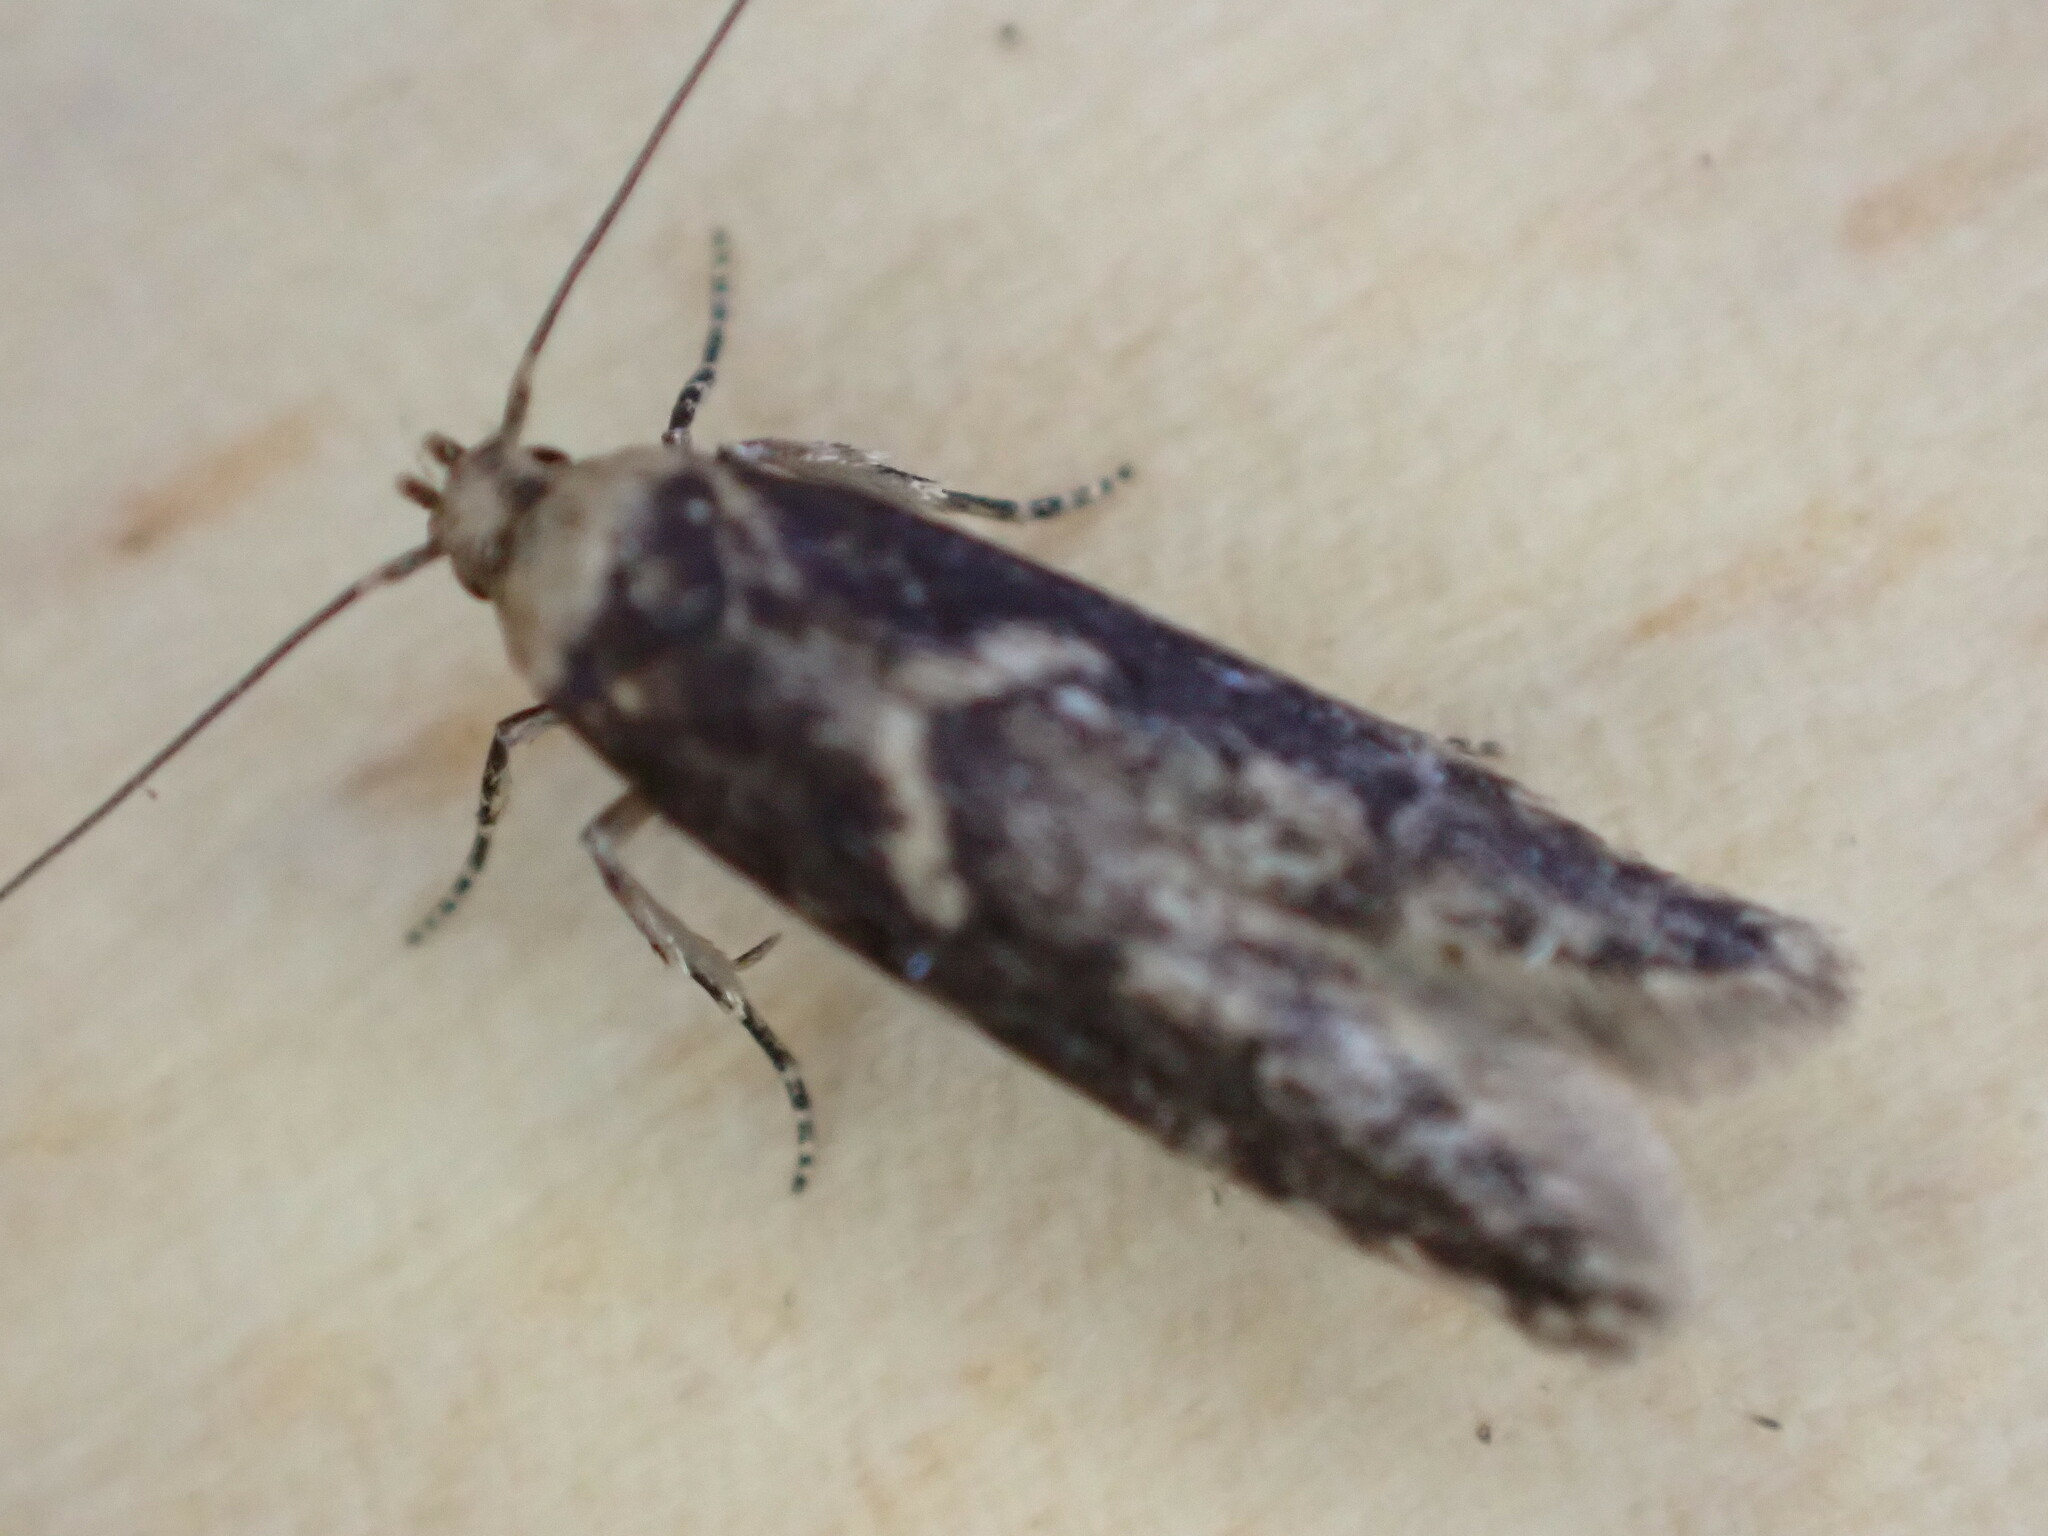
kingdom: Animalia
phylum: Arthropoda
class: Insecta
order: Lepidoptera
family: Blastobasidae
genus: Blastobasis
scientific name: Blastobasis adustella
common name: Dingy dowd
